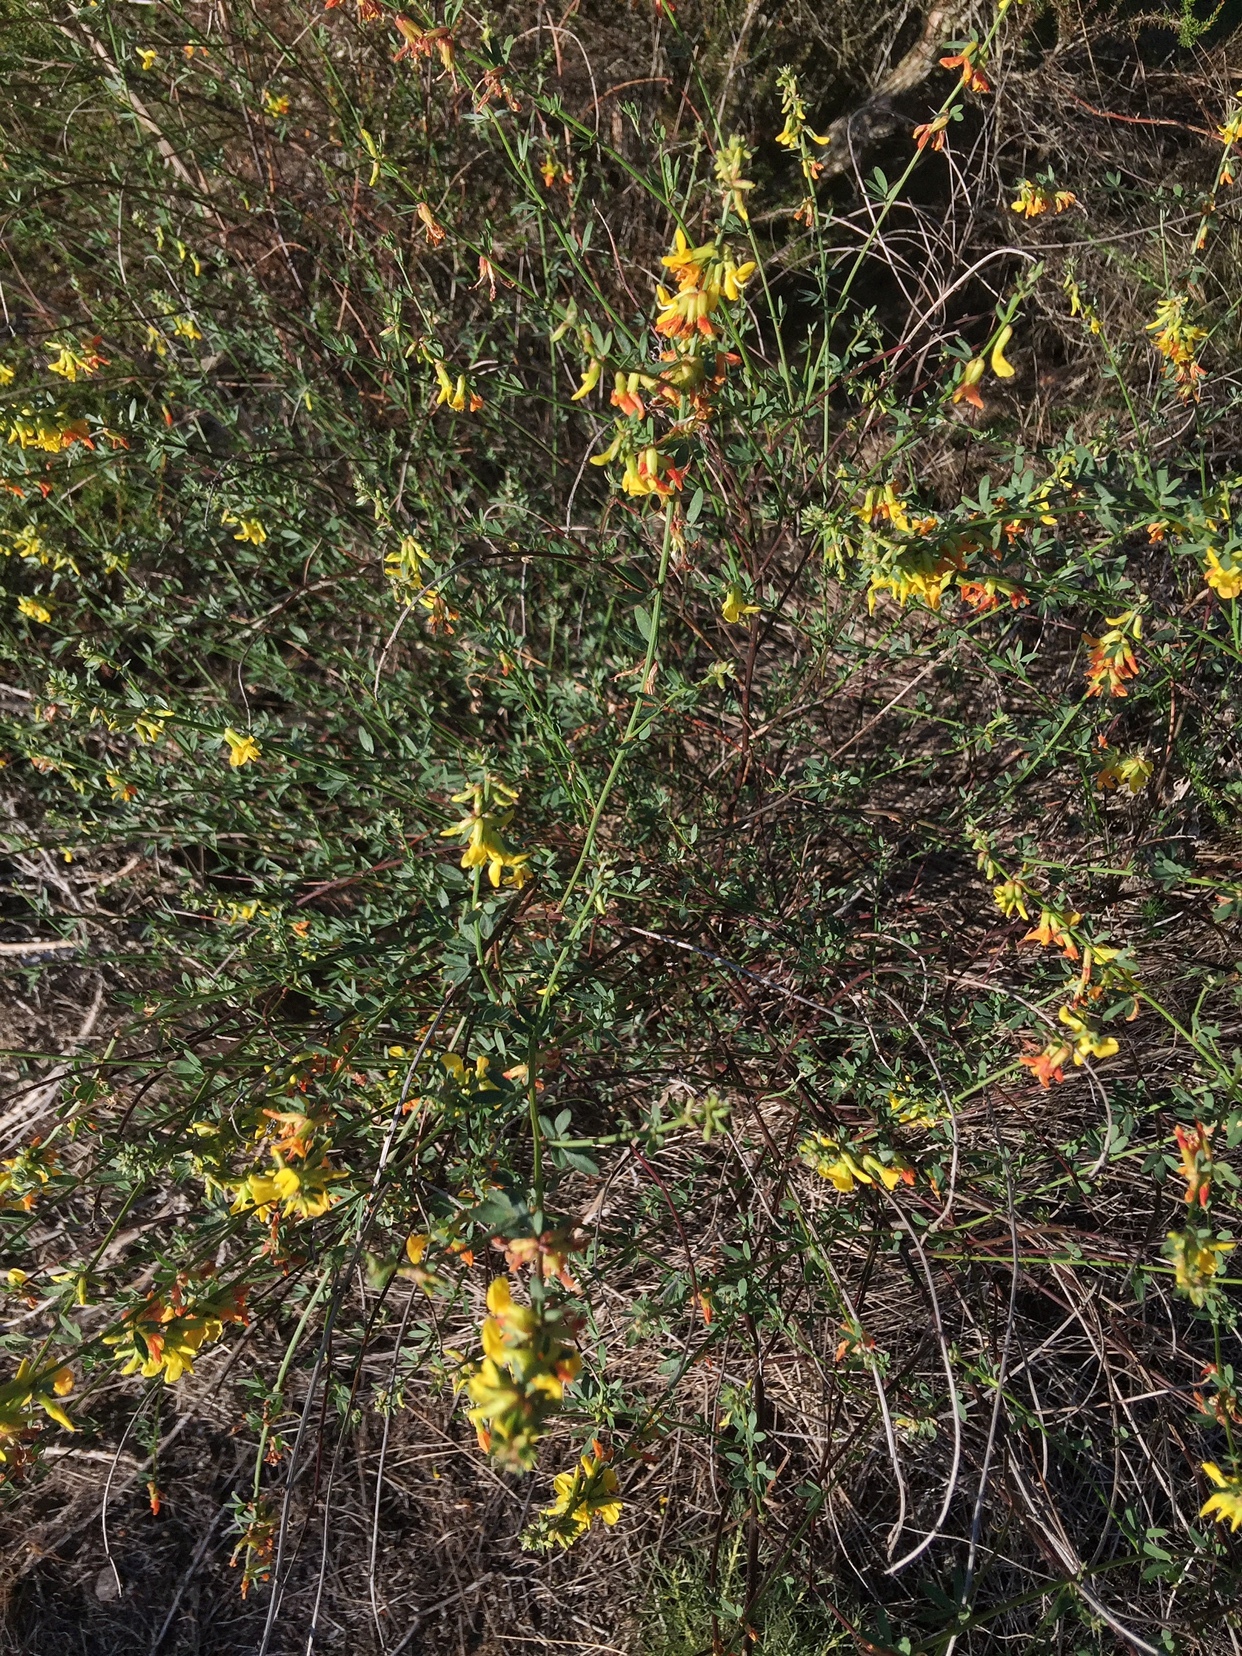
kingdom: Plantae
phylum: Tracheophyta
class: Magnoliopsida
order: Fabales
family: Fabaceae
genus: Acmispon
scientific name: Acmispon glaber
